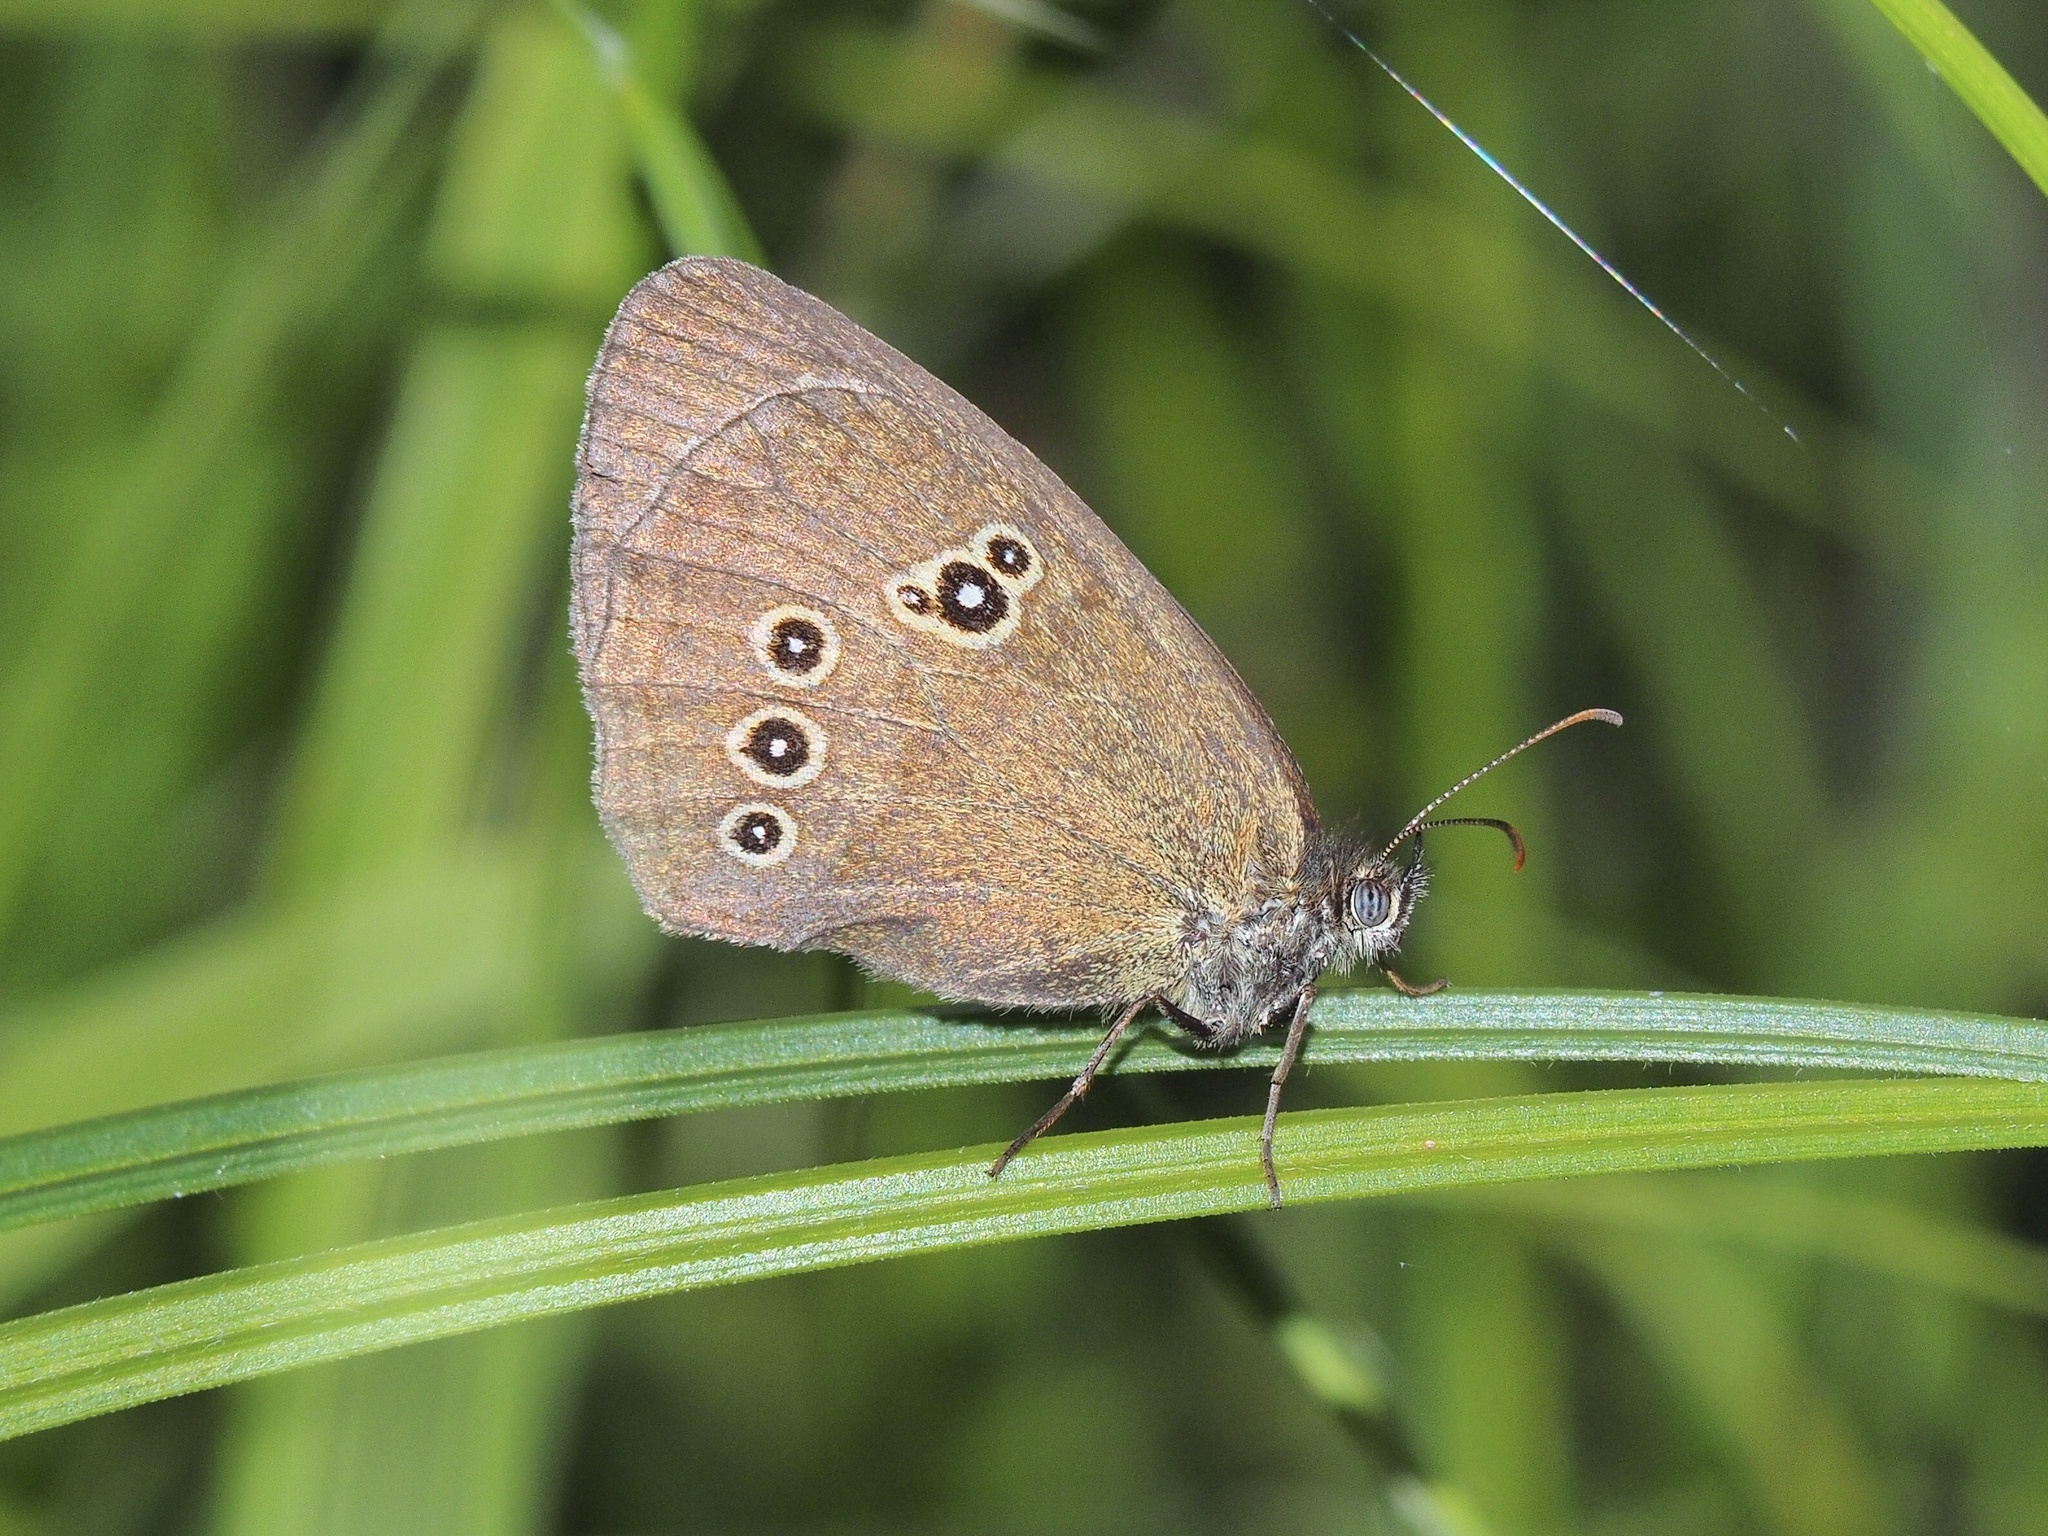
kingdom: Animalia
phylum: Arthropoda
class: Insecta
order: Lepidoptera
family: Nymphalidae
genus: Aphantopus
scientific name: Aphantopus hyperantus
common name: Ringlet
